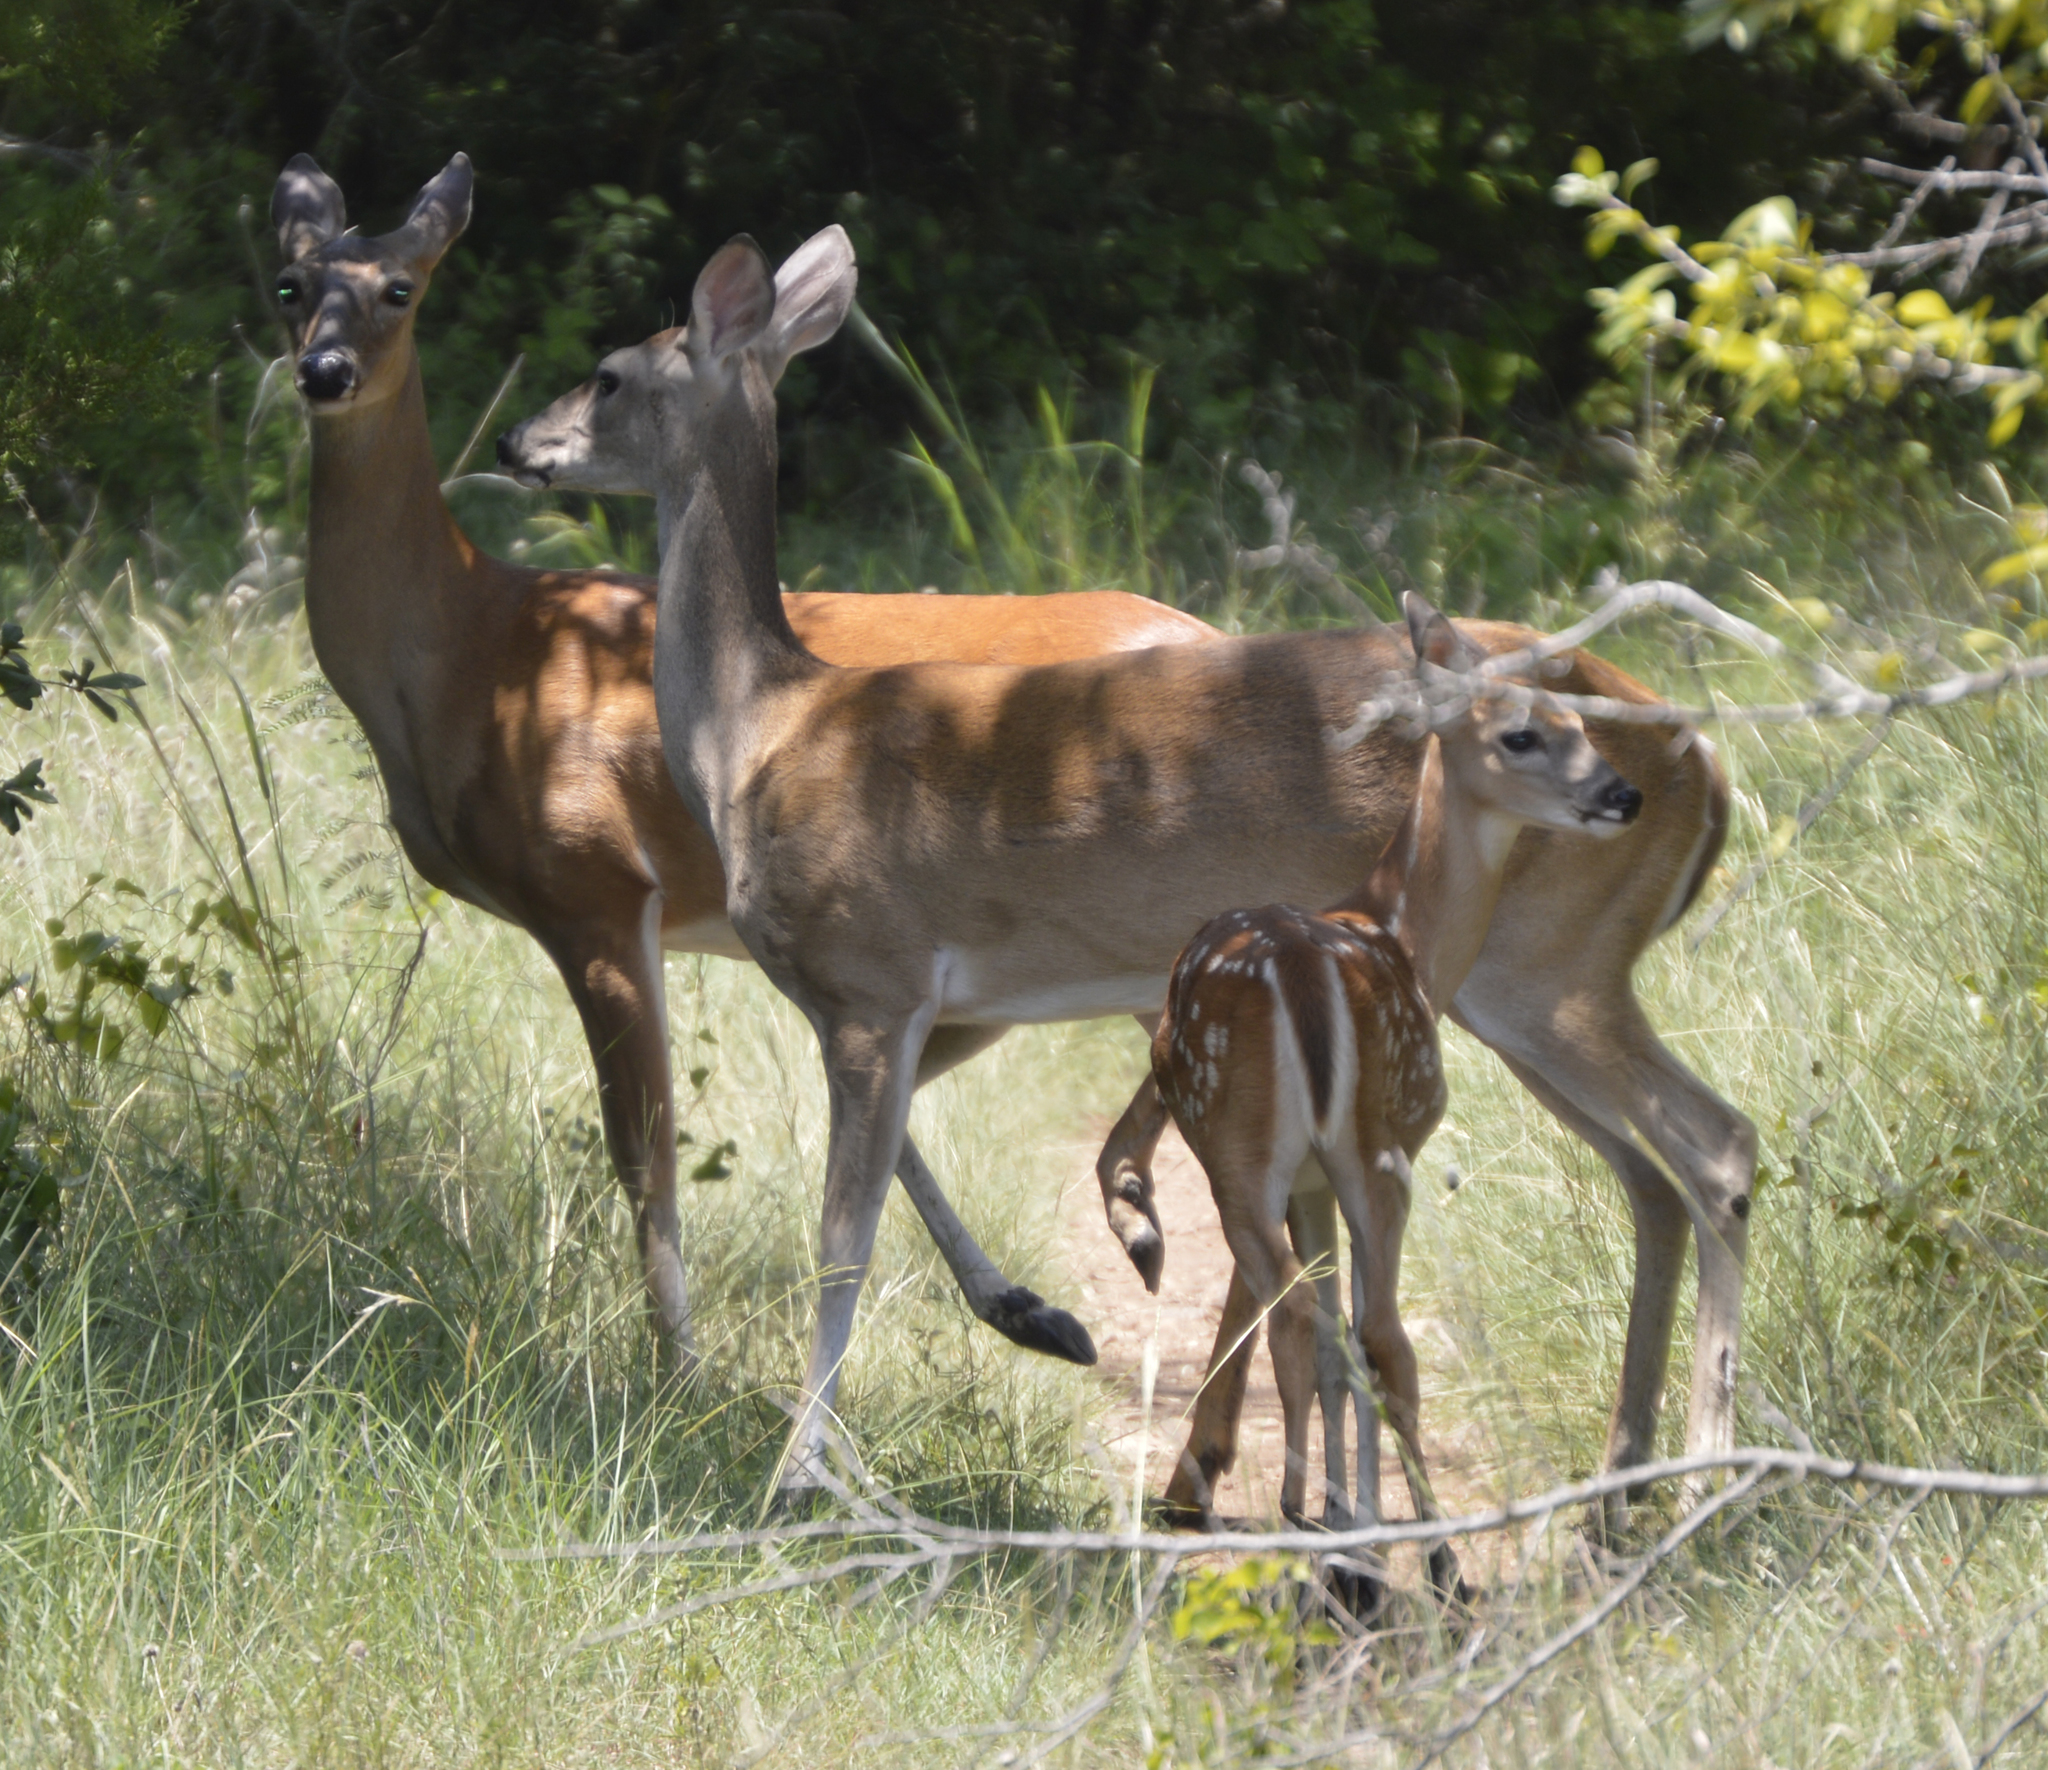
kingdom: Animalia
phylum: Chordata
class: Mammalia
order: Artiodactyla
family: Cervidae
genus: Odocoileus
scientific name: Odocoileus virginianus
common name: White-tailed deer
